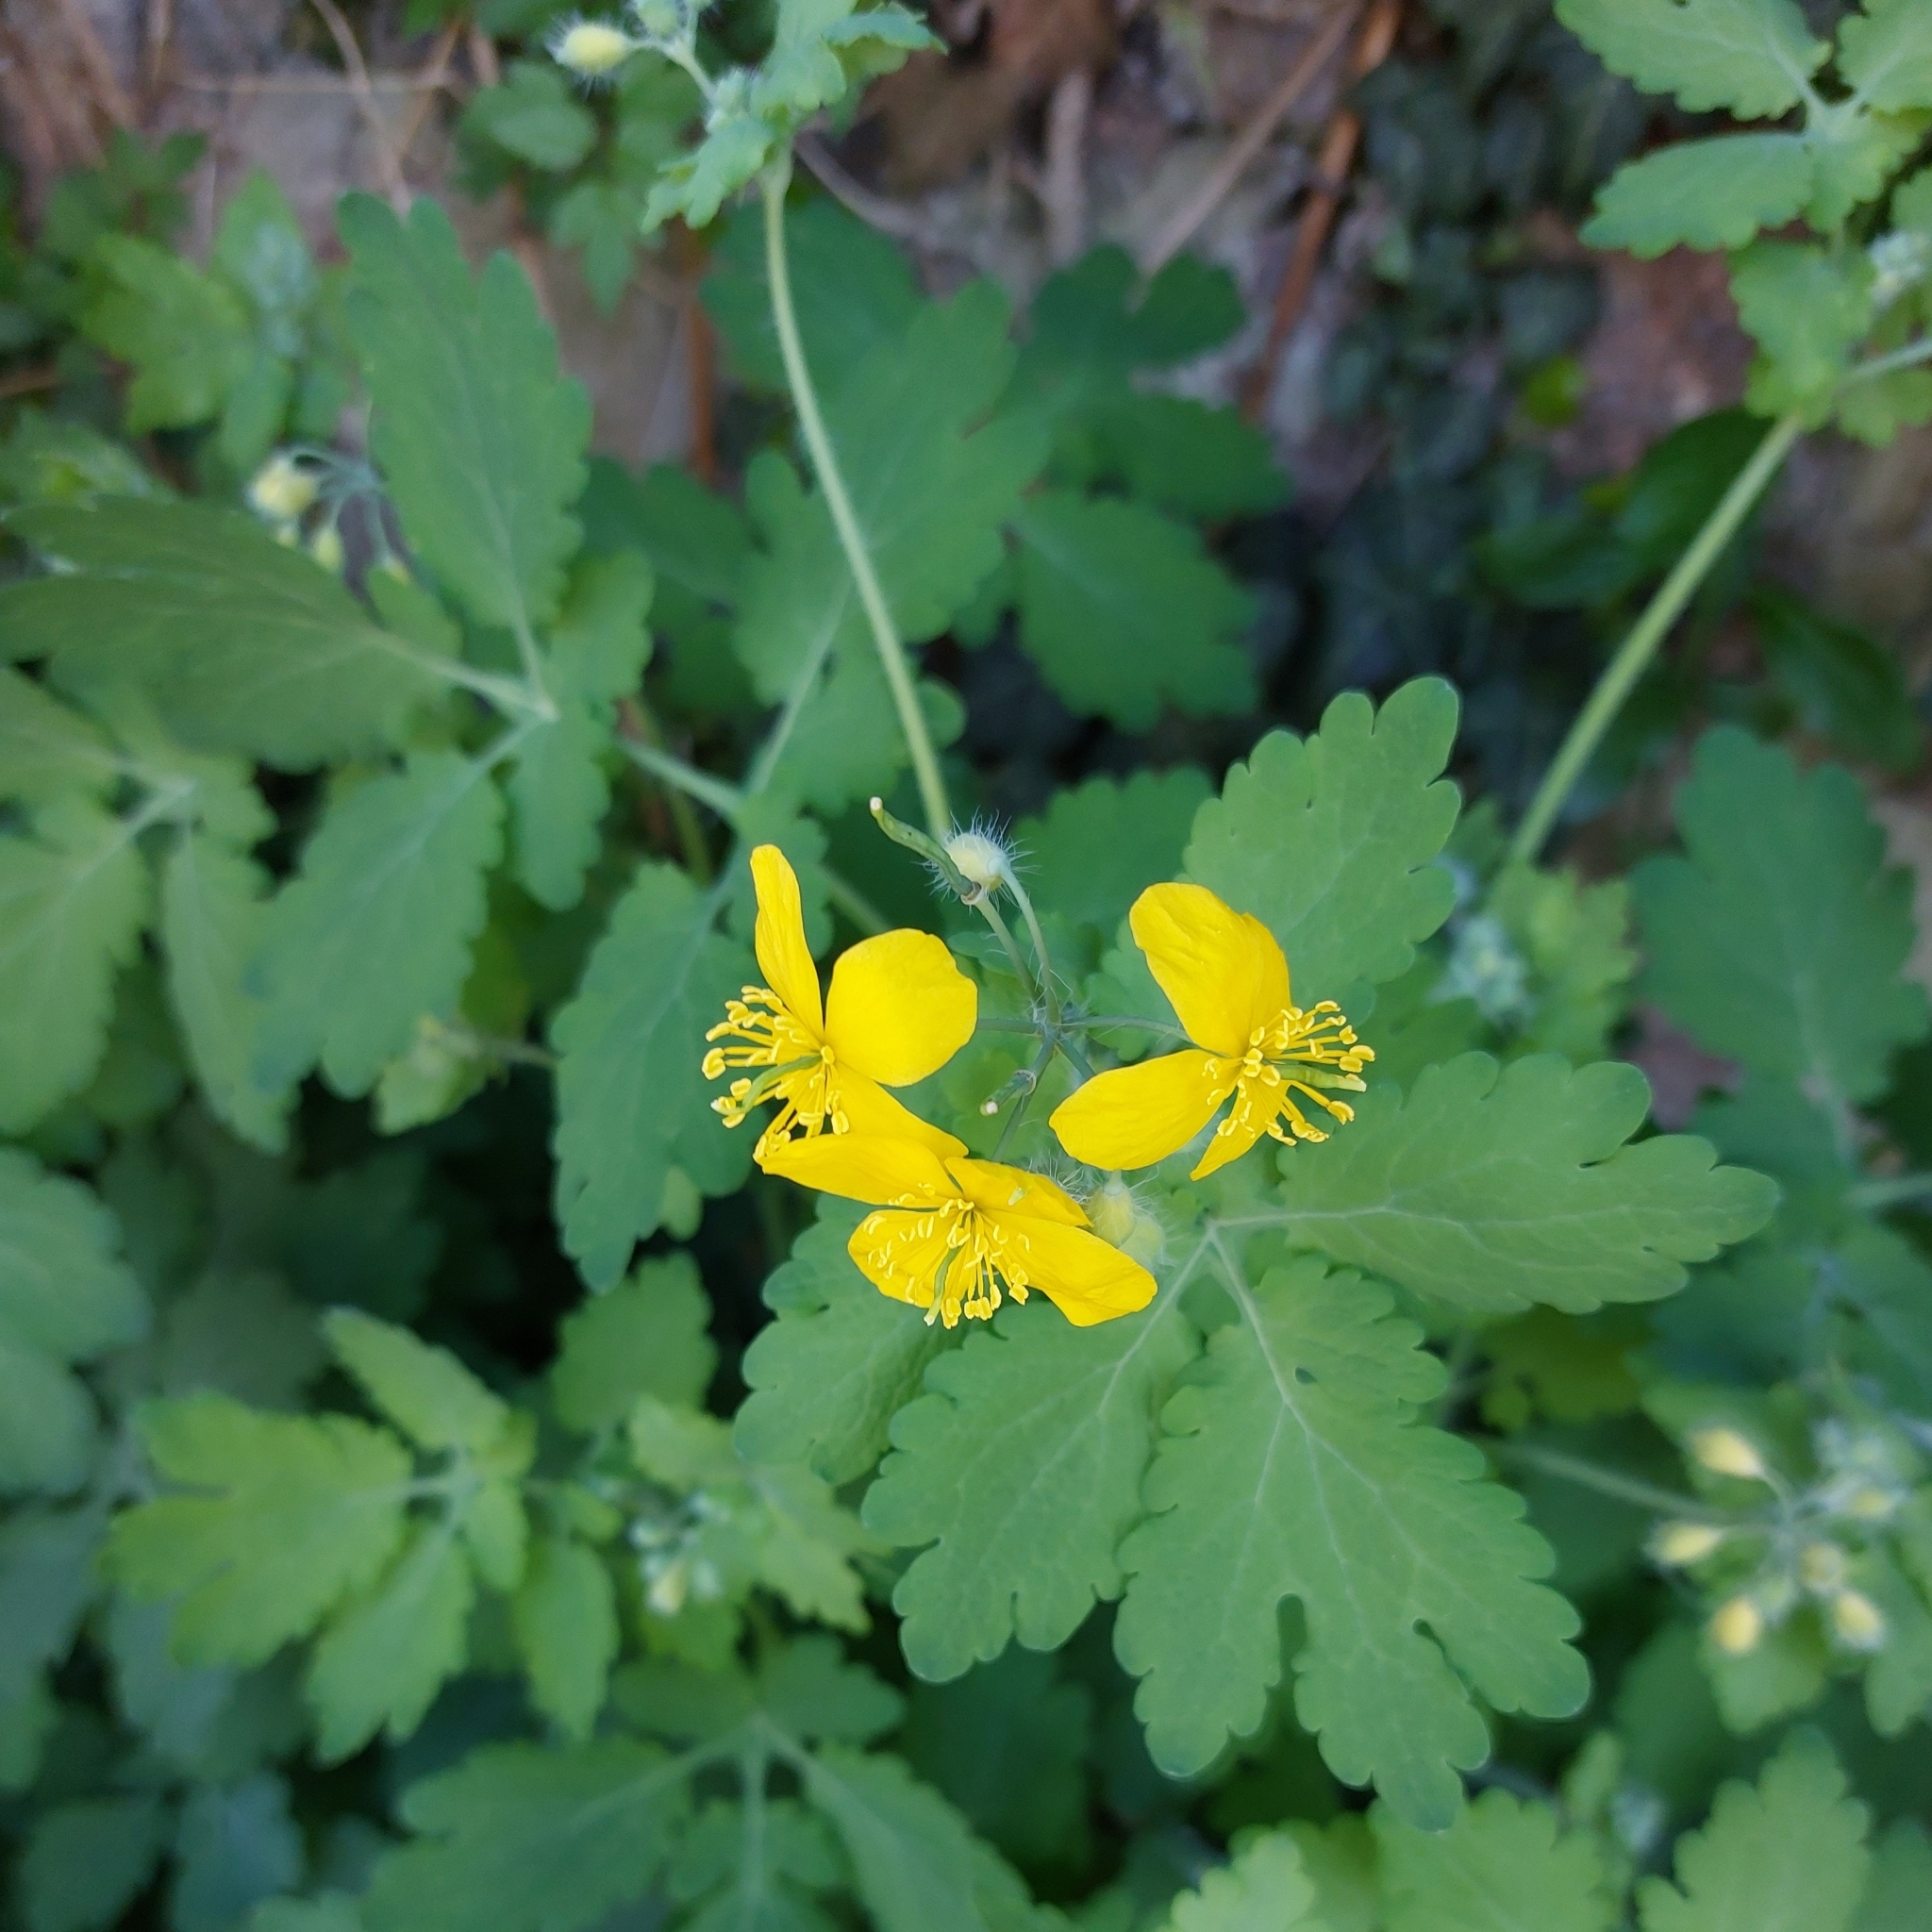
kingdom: Plantae
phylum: Tracheophyta
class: Magnoliopsida
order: Ranunculales
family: Papaveraceae
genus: Chelidonium
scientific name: Chelidonium majus
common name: Greater celandine
